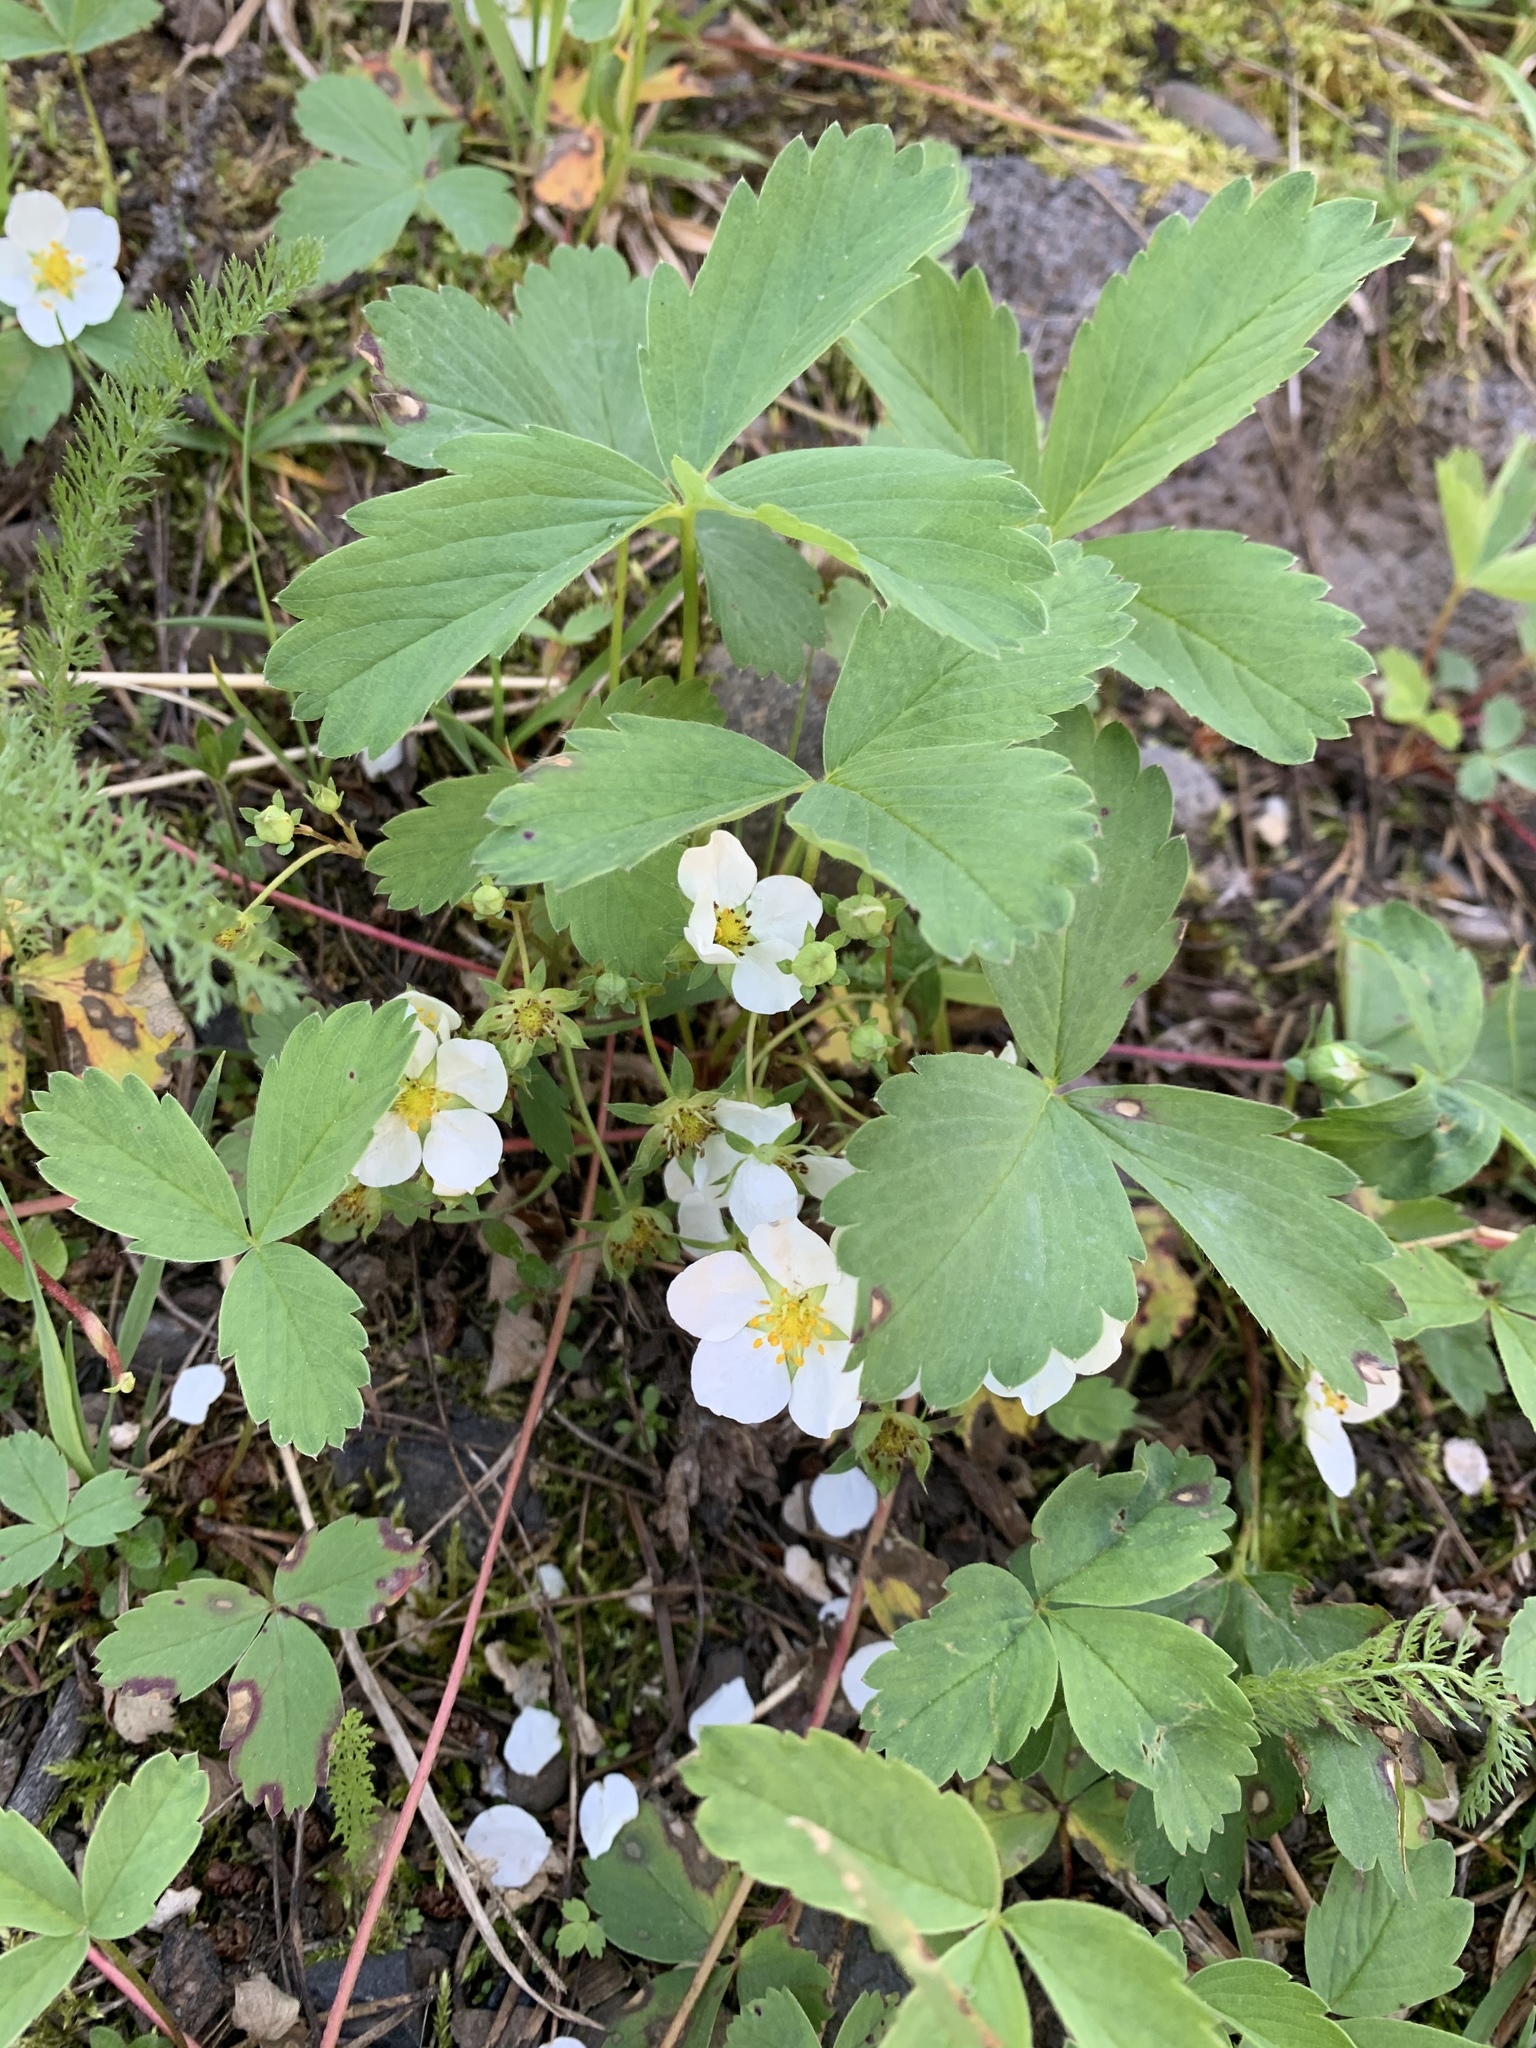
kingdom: Plantae
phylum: Tracheophyta
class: Magnoliopsida
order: Rosales
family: Rosaceae
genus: Fragaria
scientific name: Fragaria virginiana
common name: Thickleaved wild strawberry
